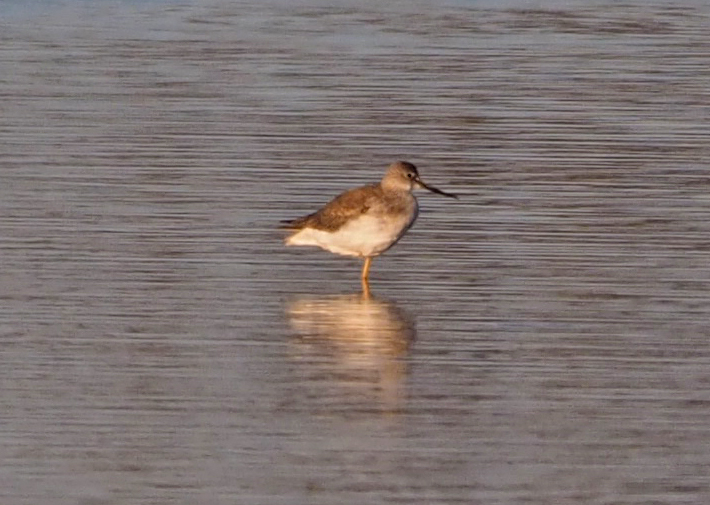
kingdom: Animalia
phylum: Chordata
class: Aves
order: Charadriiformes
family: Scolopacidae
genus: Tringa
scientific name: Tringa melanoleuca
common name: Greater yellowlegs
